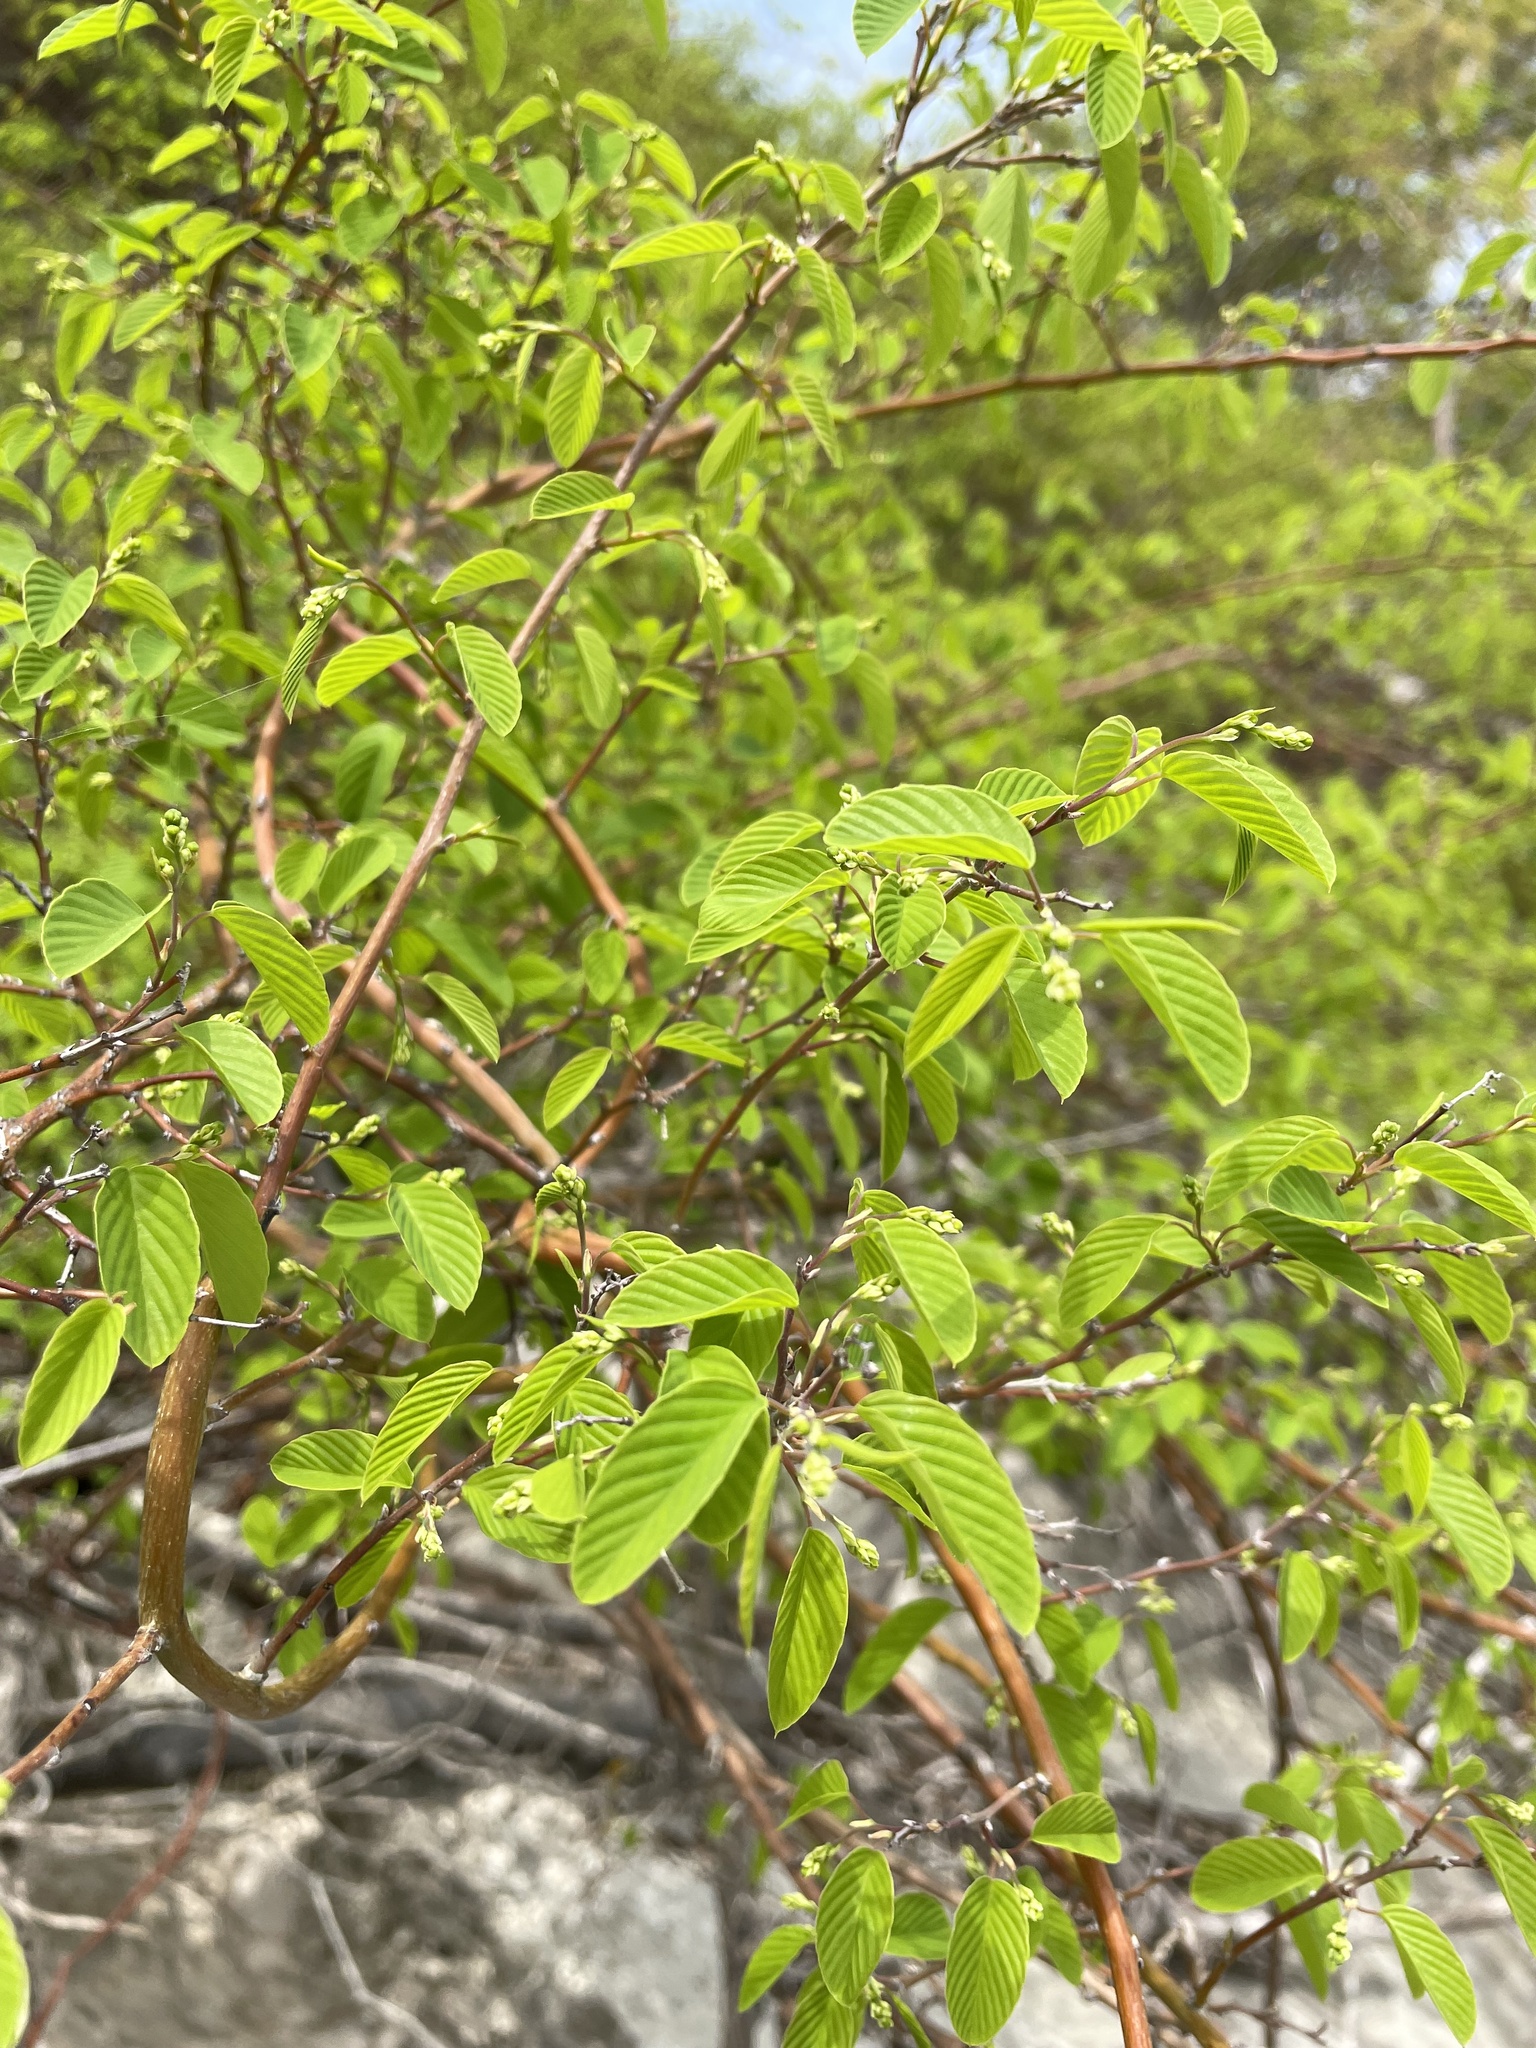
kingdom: Plantae
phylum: Tracheophyta
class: Magnoliopsida
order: Rosales
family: Rhamnaceae
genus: Berchemia
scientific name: Berchemia scandens
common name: Supplejack
